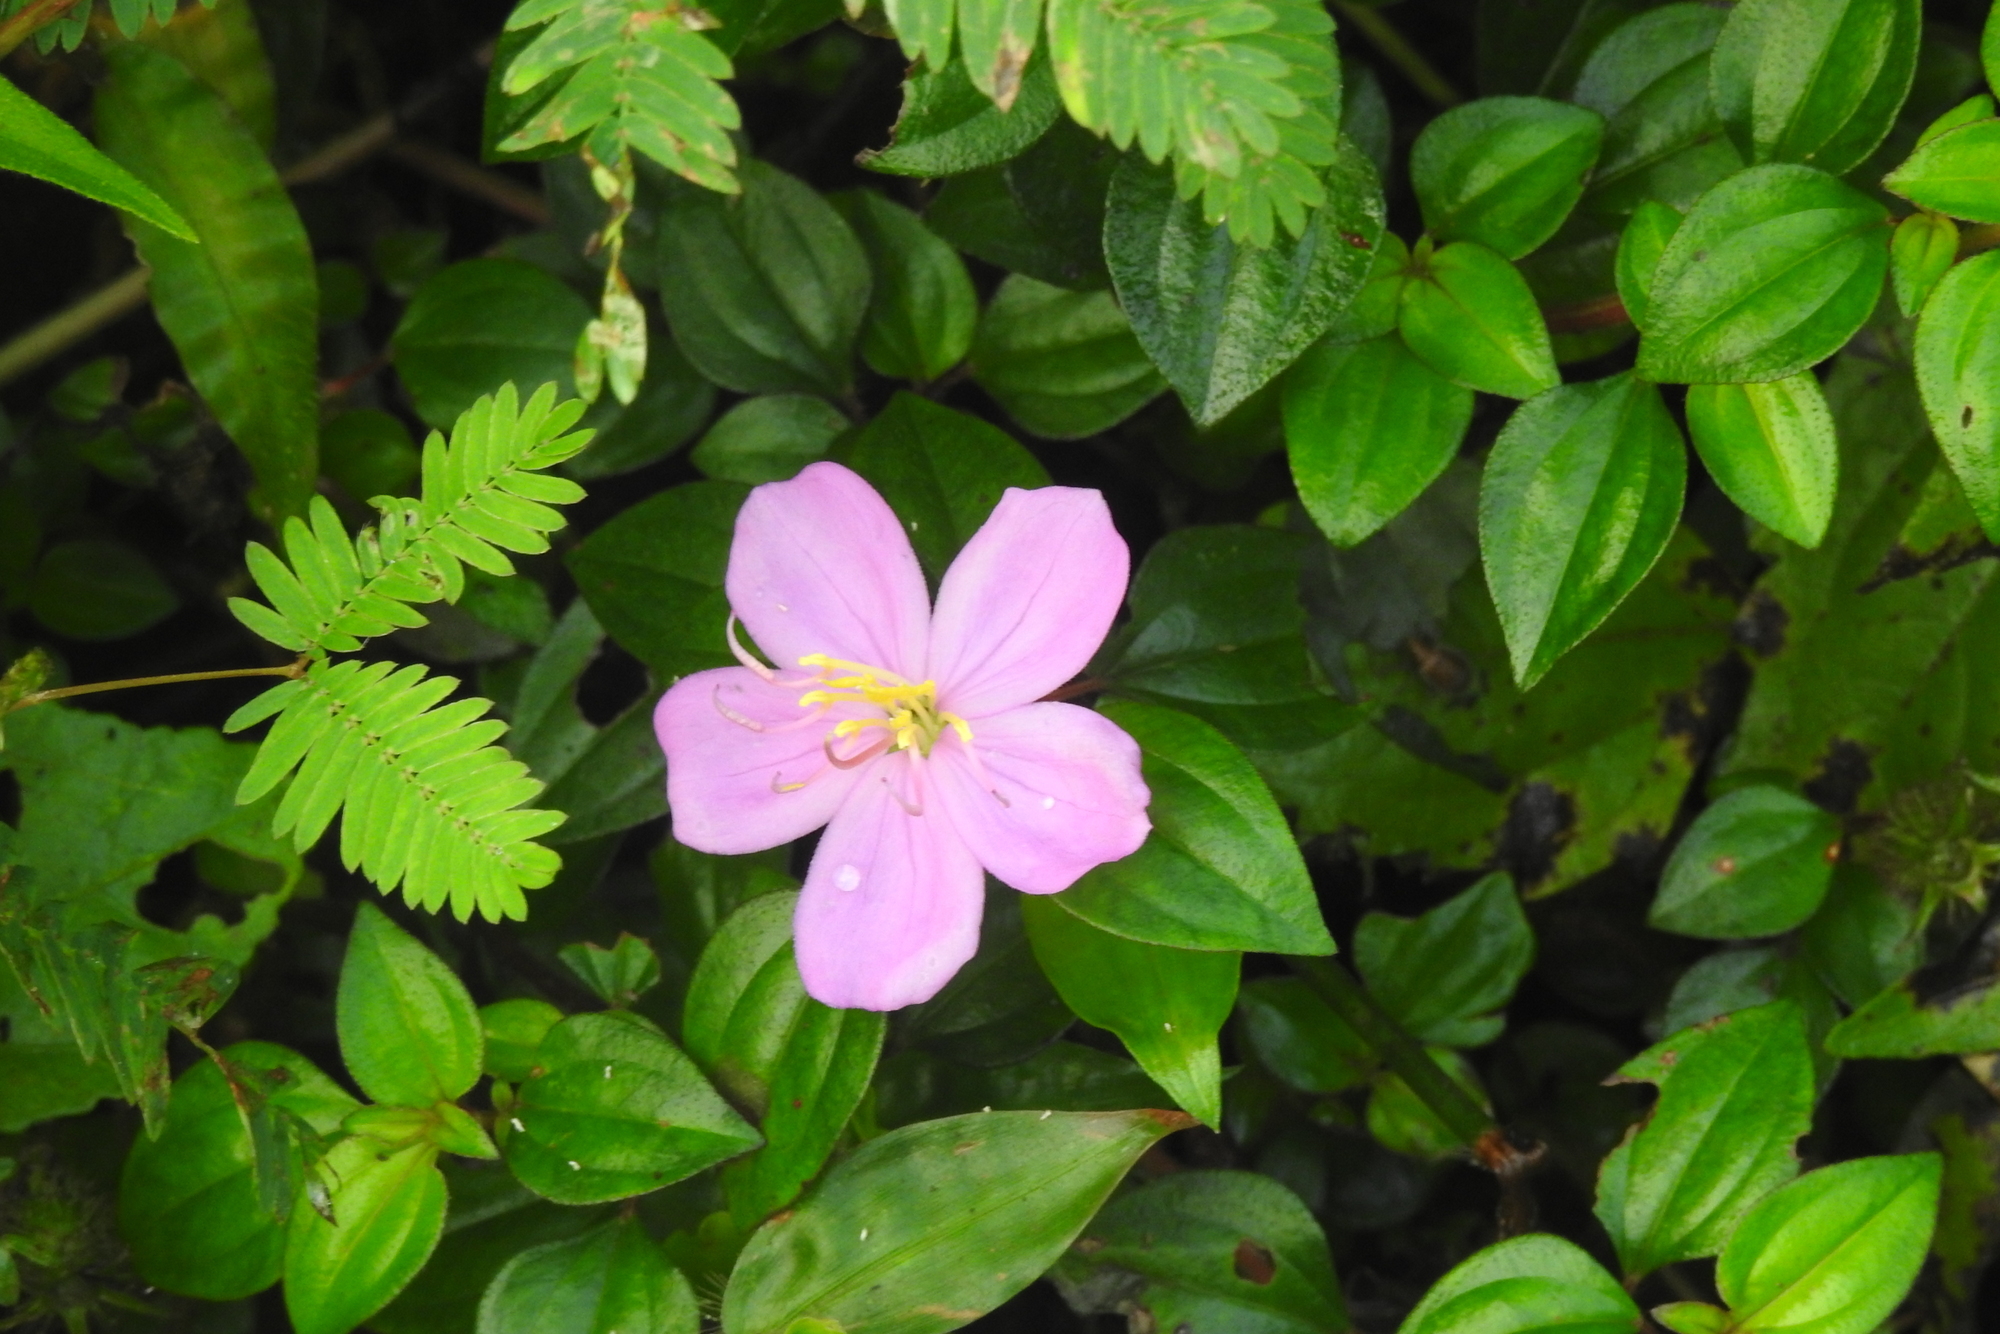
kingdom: Plantae
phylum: Tracheophyta
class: Magnoliopsida
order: Myrtales
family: Melastomataceae
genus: Heterotis
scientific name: Heterotis rotundifolia
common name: Pinklady
